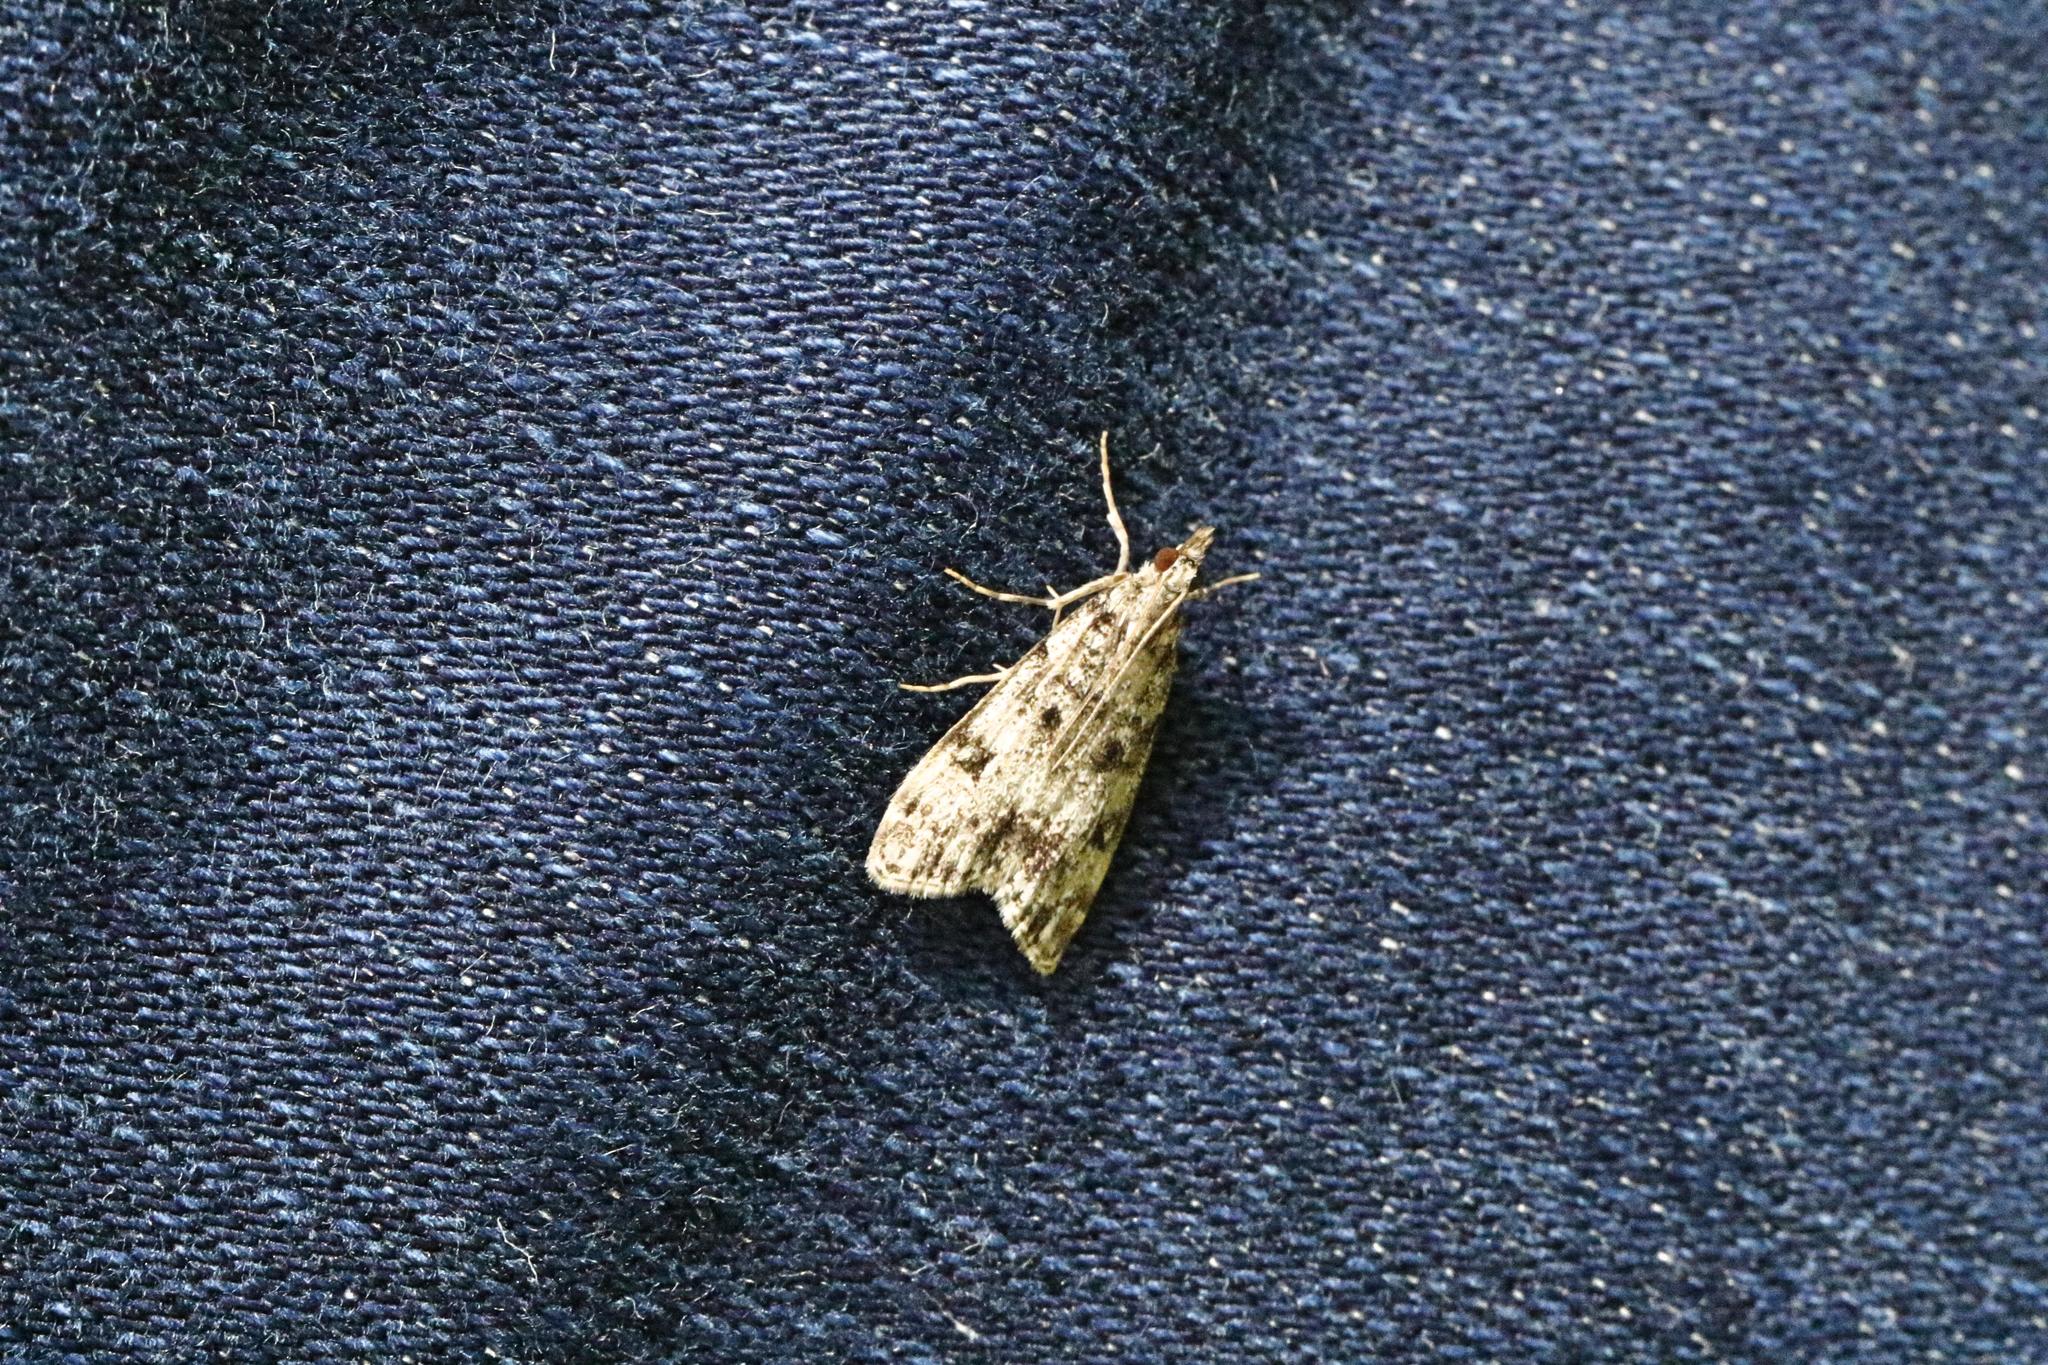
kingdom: Animalia
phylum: Arthropoda
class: Insecta
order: Lepidoptera
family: Crambidae
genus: Eudonia
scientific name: Eudonia lacustrata
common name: Little grey
